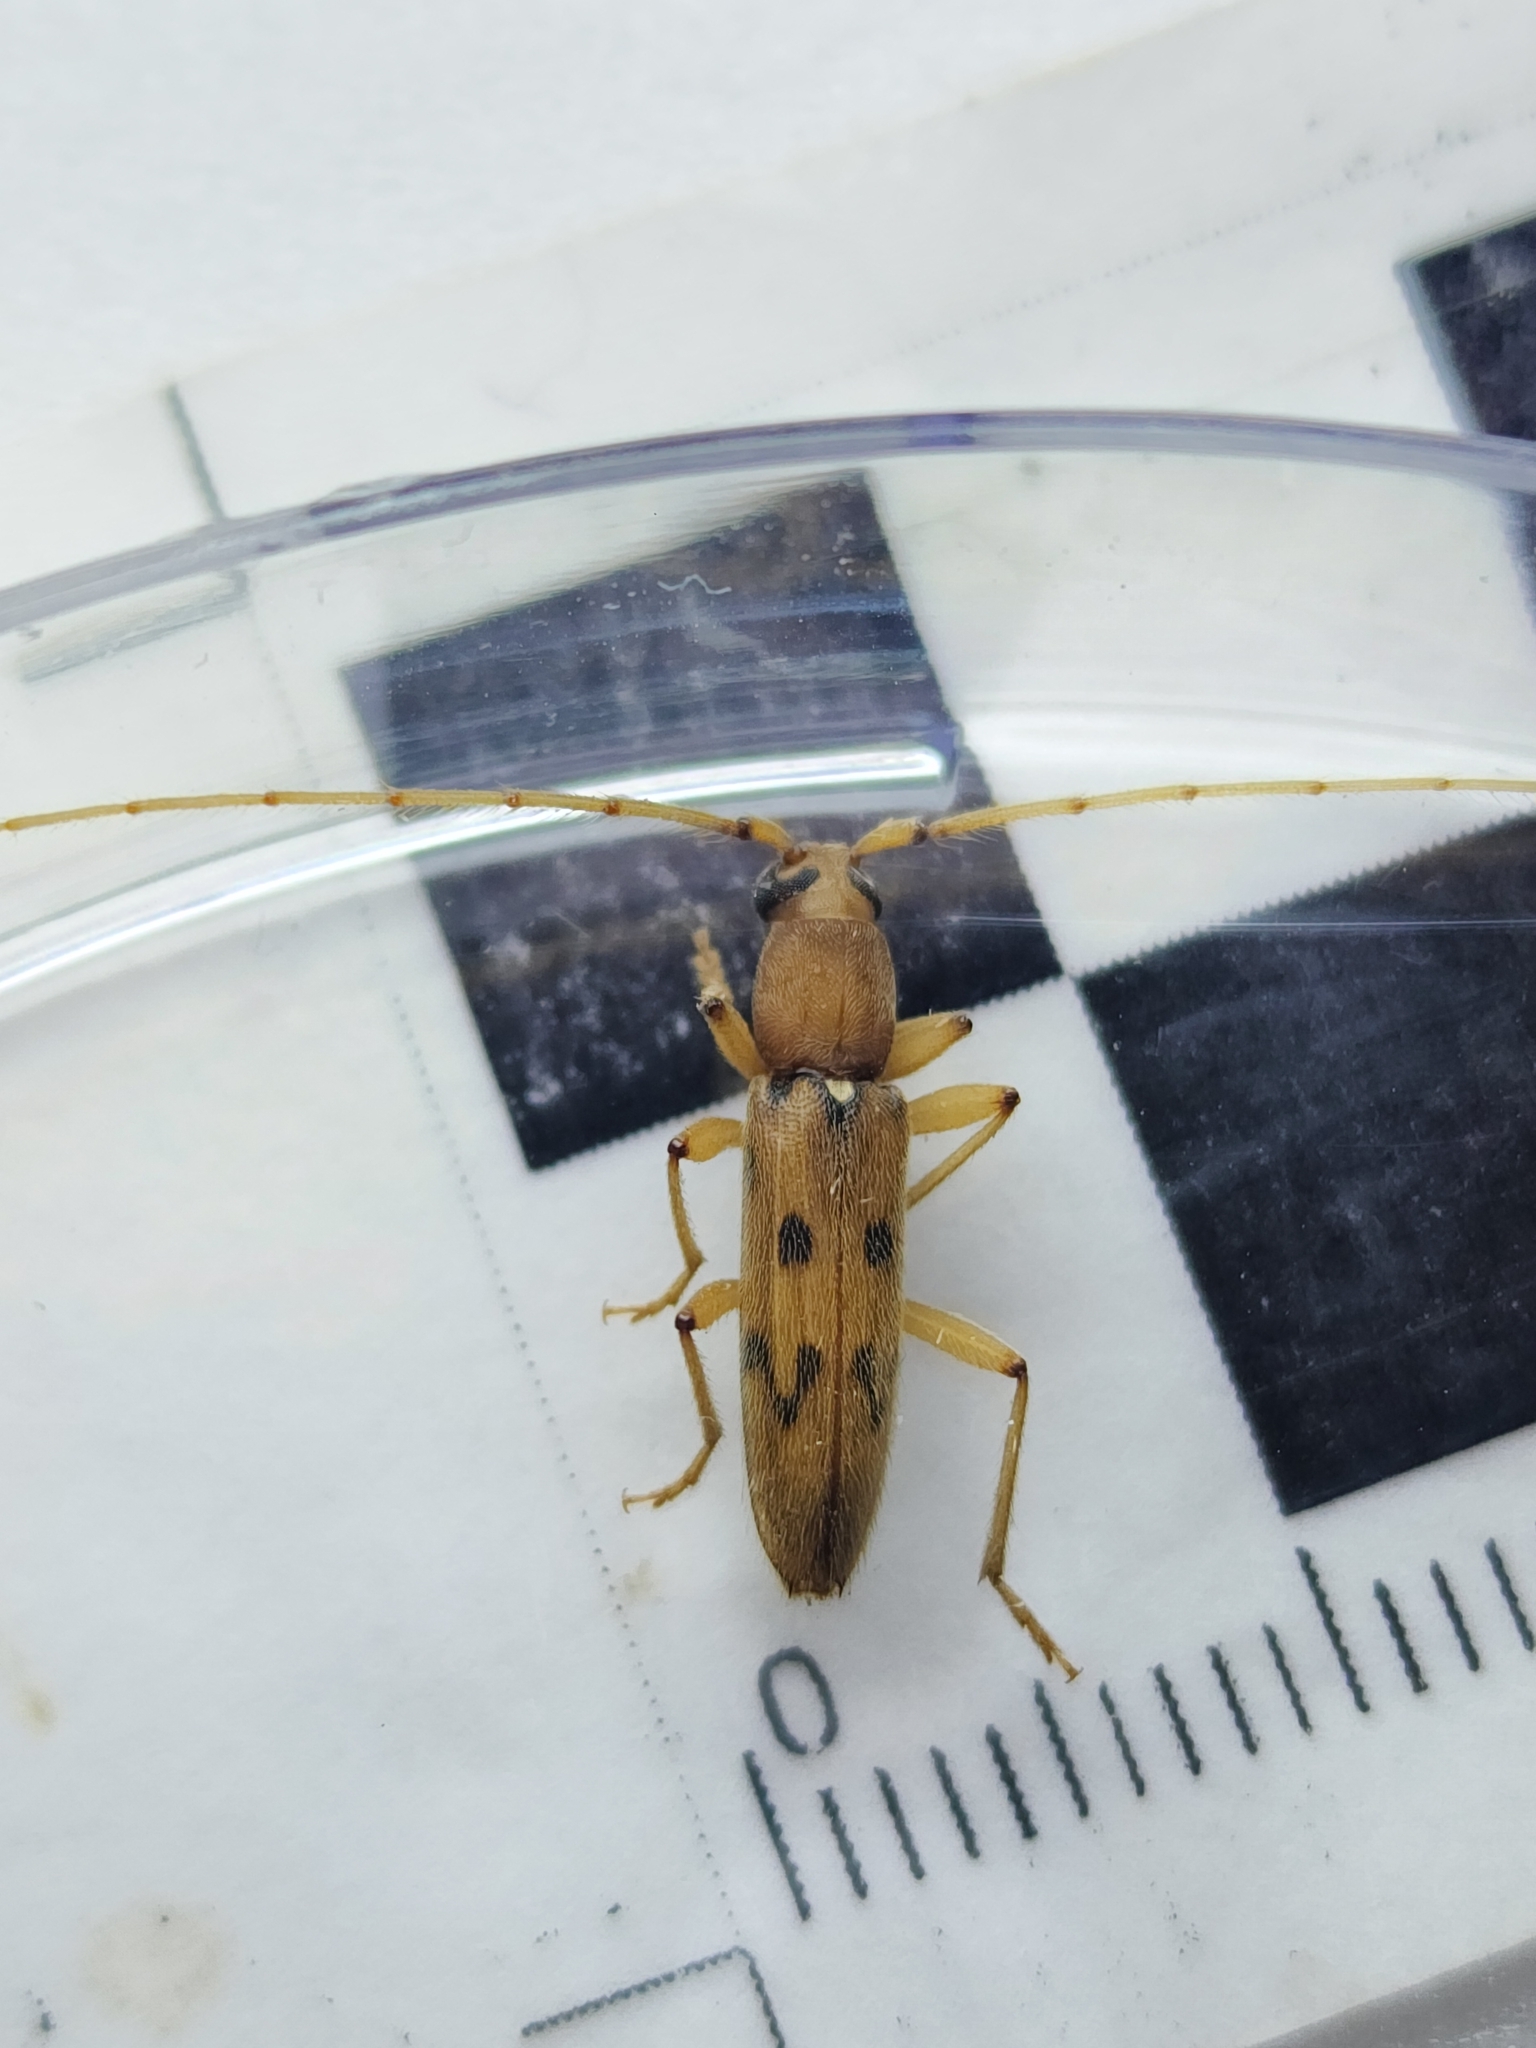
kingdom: Animalia
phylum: Arthropoda
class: Insecta
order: Coleoptera
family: Cerambycidae
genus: Achryson
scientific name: Achryson surinamum
